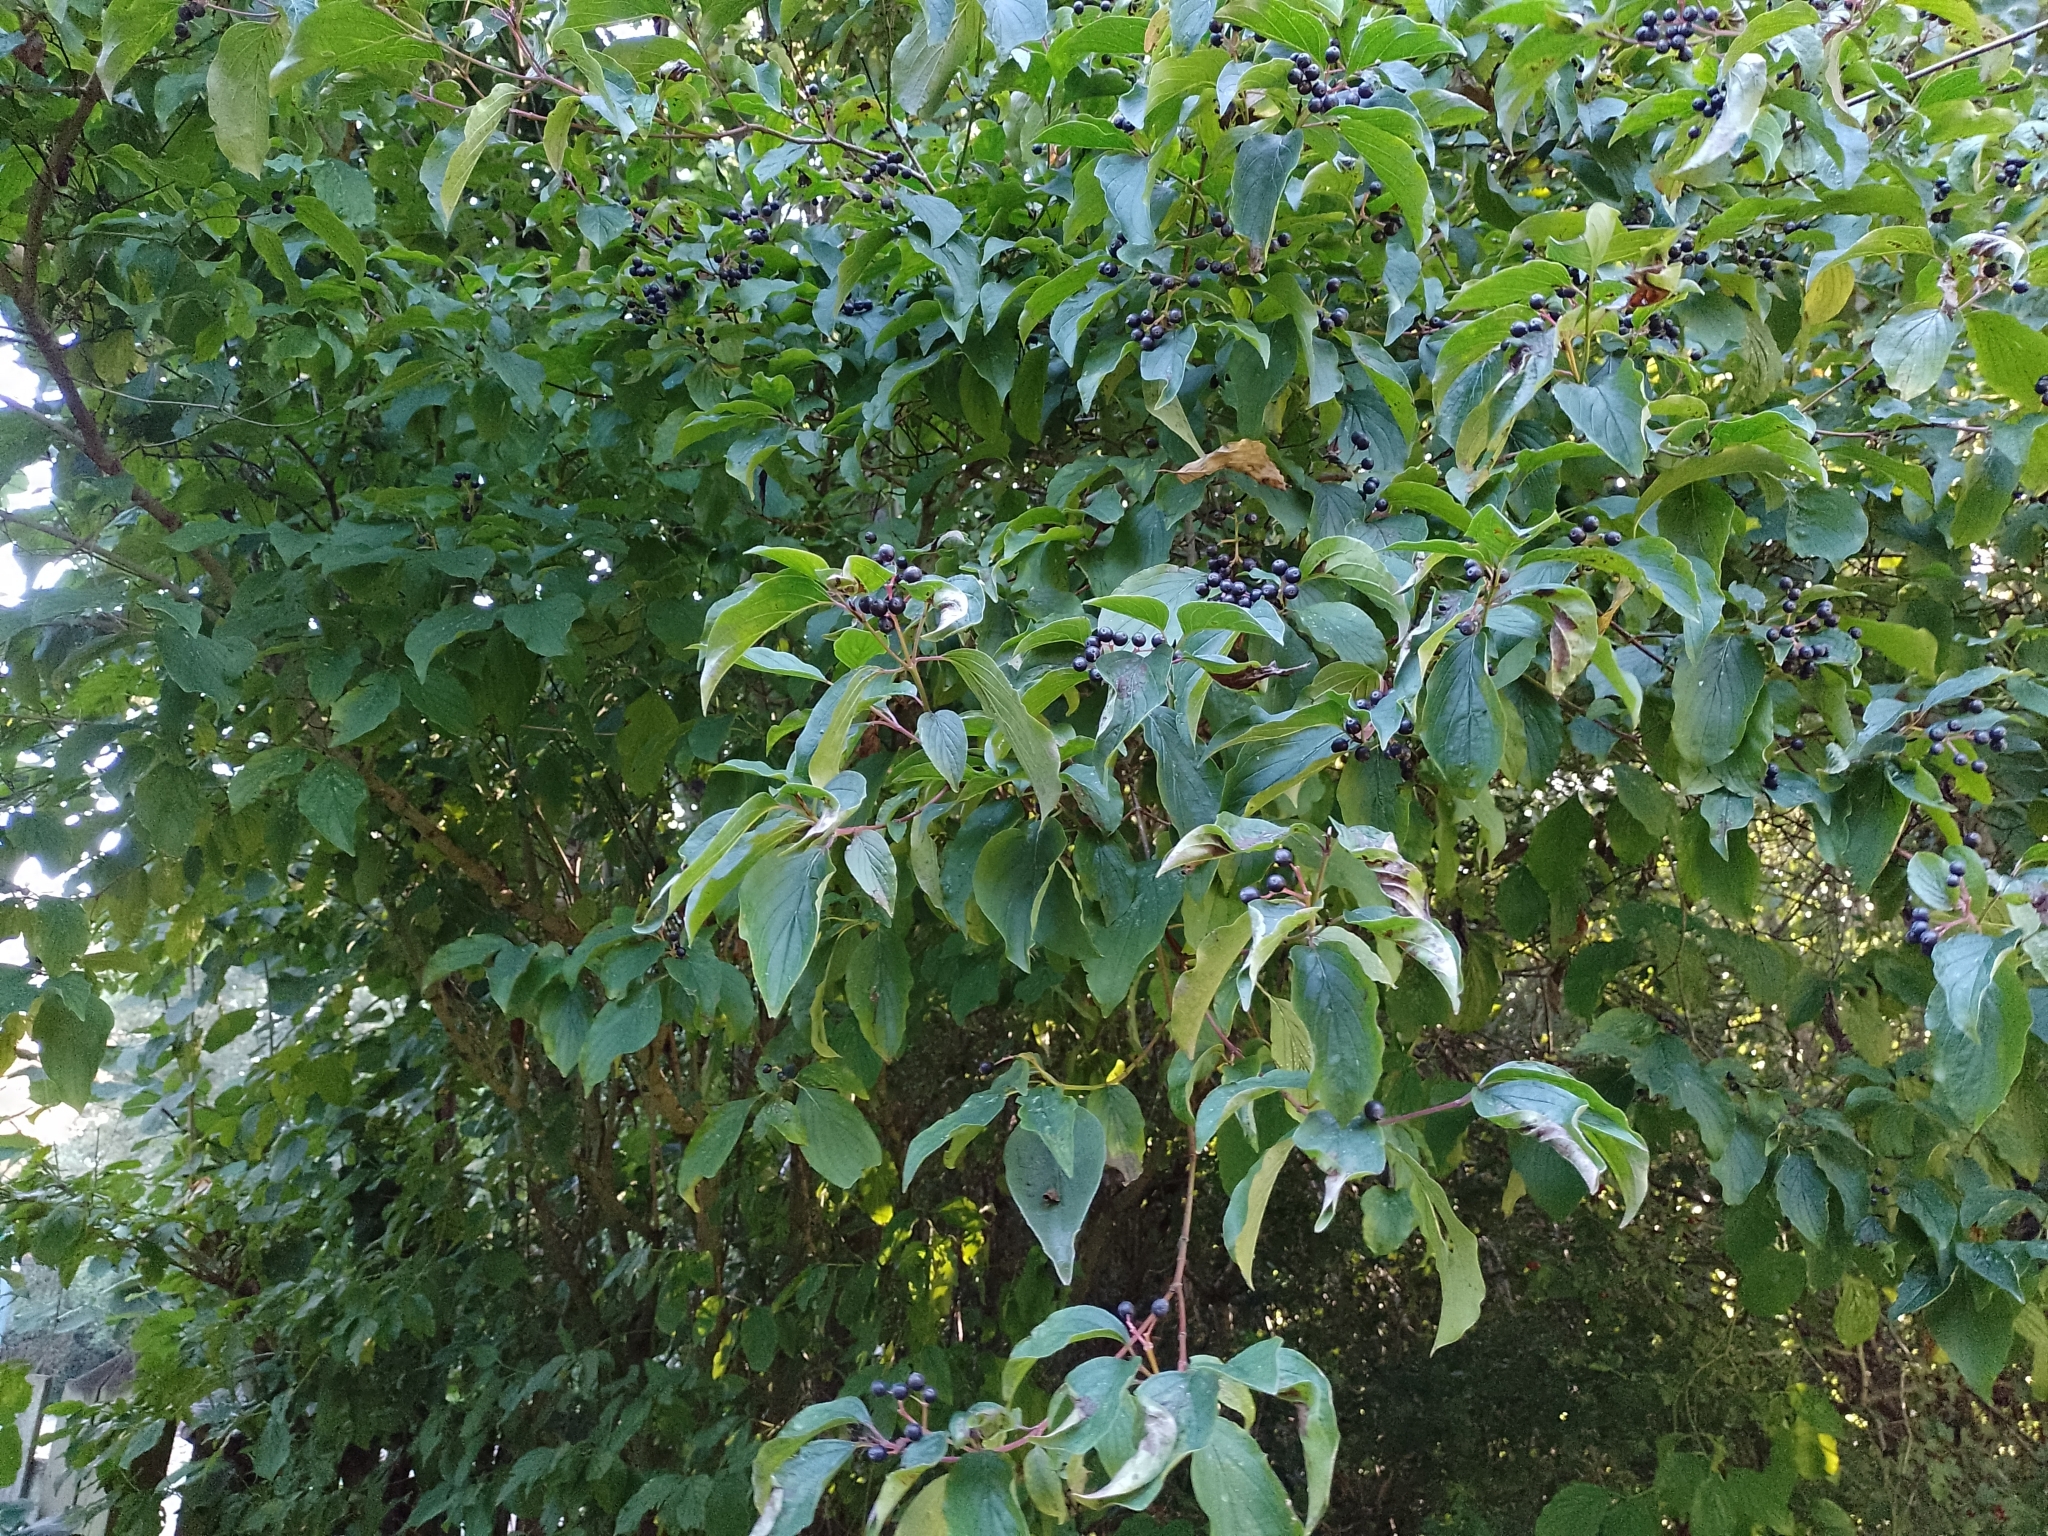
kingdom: Plantae
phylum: Tracheophyta
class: Magnoliopsida
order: Cornales
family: Cornaceae
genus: Cornus
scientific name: Cornus sanguinea
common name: Dogwood
